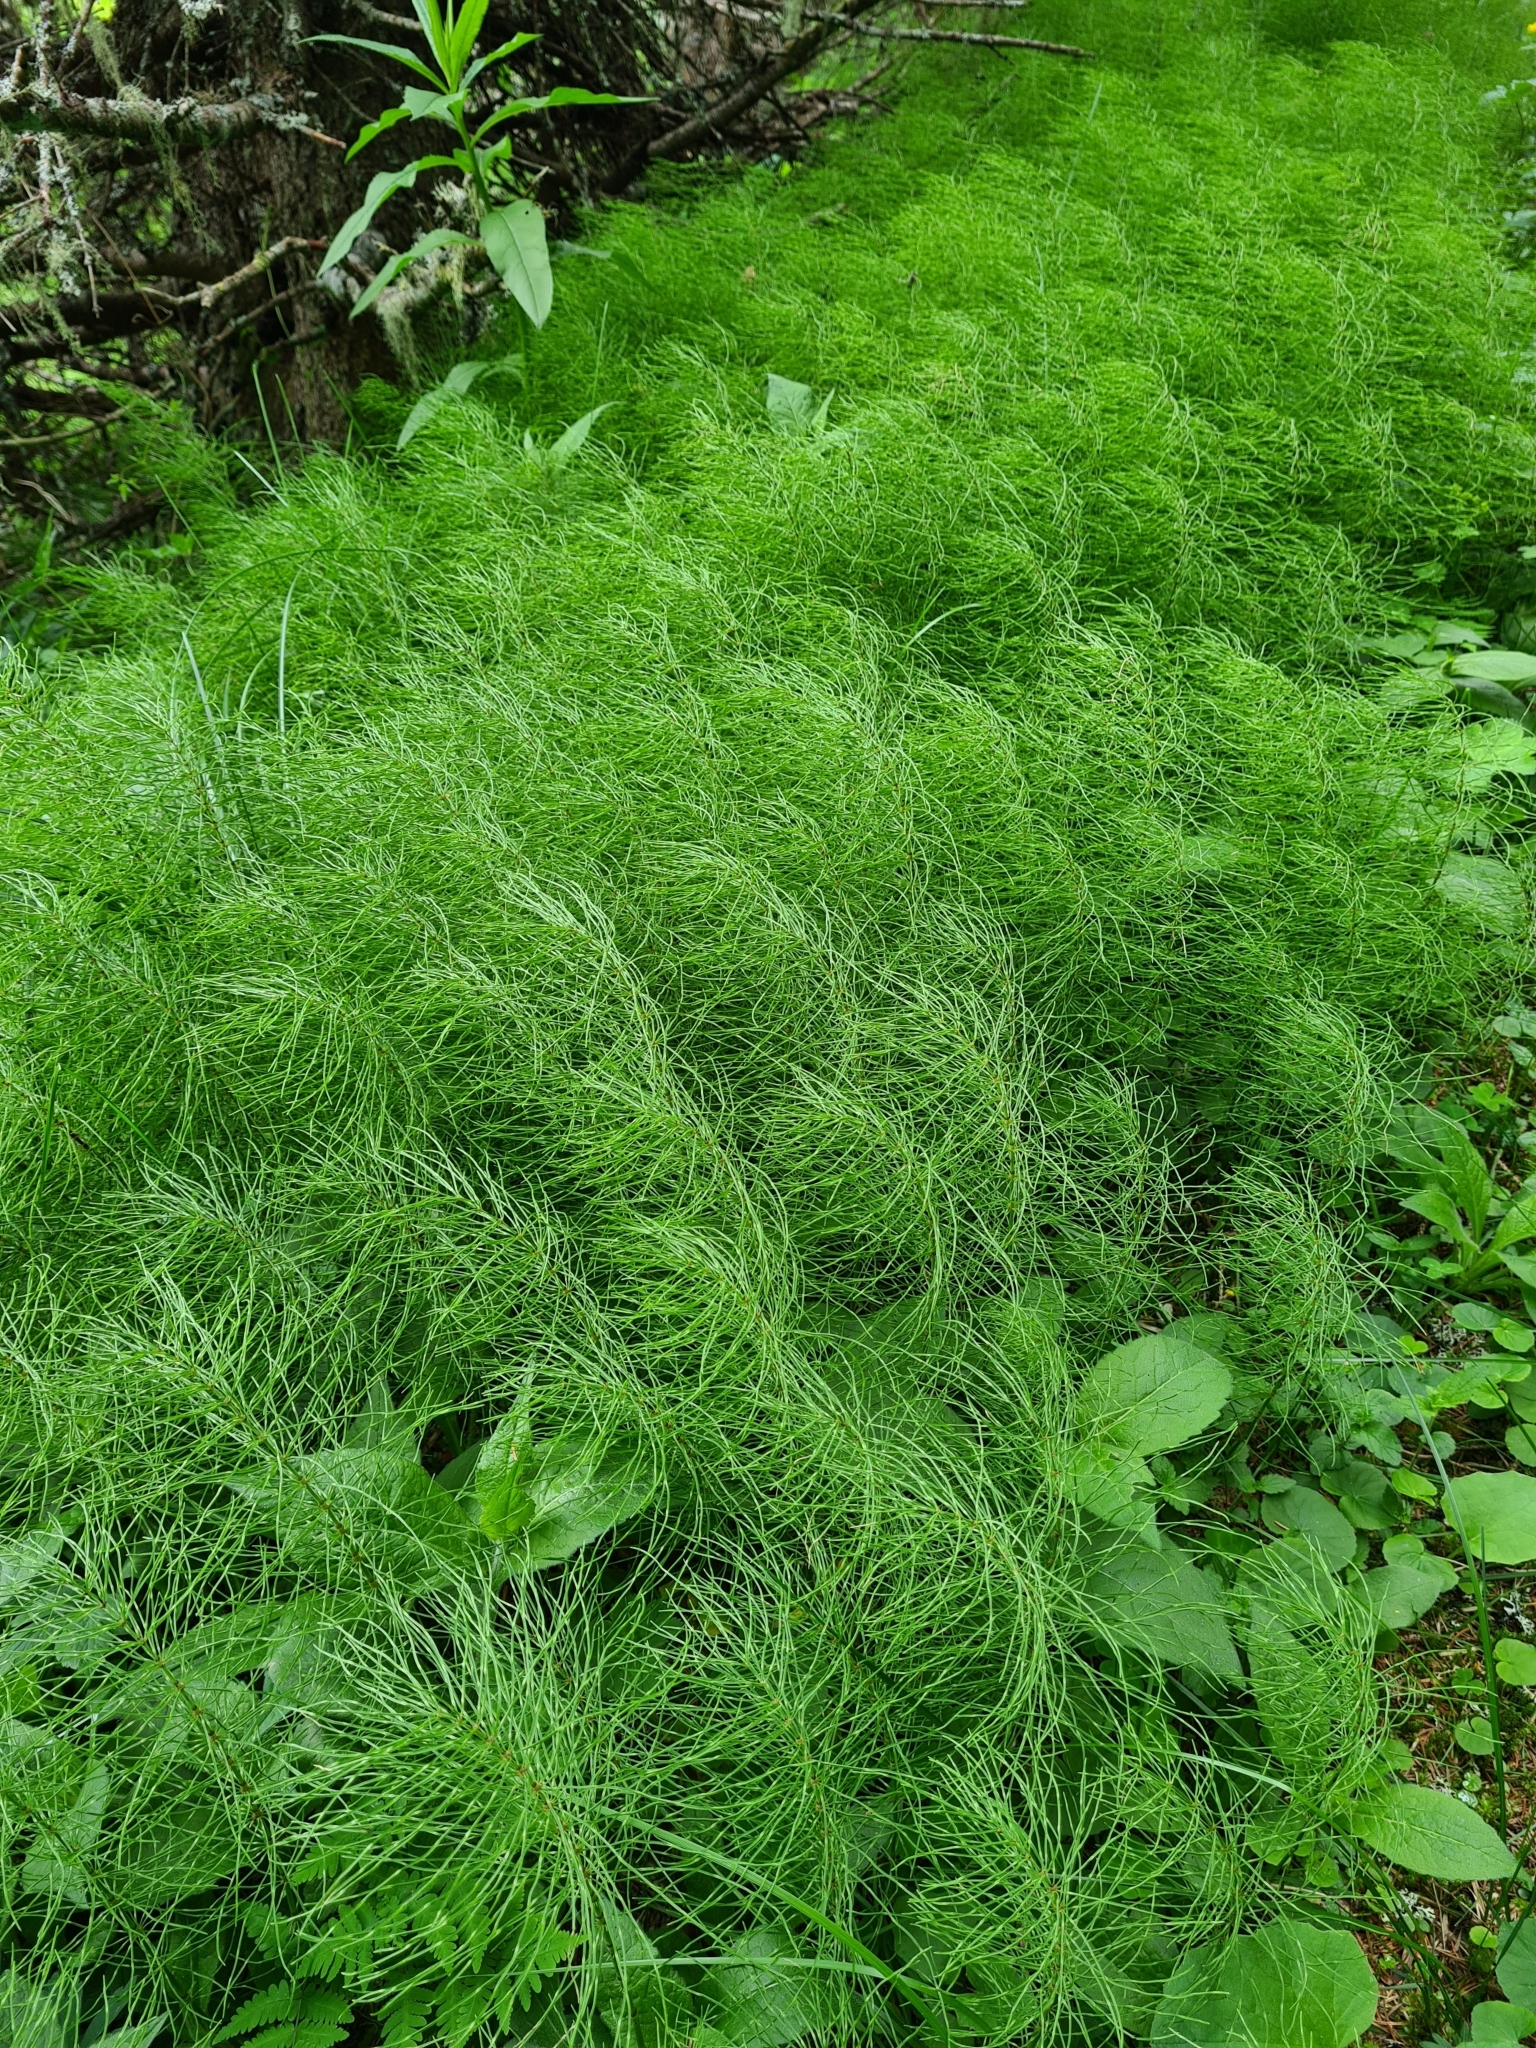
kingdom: Plantae
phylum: Tracheophyta
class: Polypodiopsida
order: Equisetales
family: Equisetaceae
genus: Equisetum
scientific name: Equisetum arvense
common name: Field horsetail
